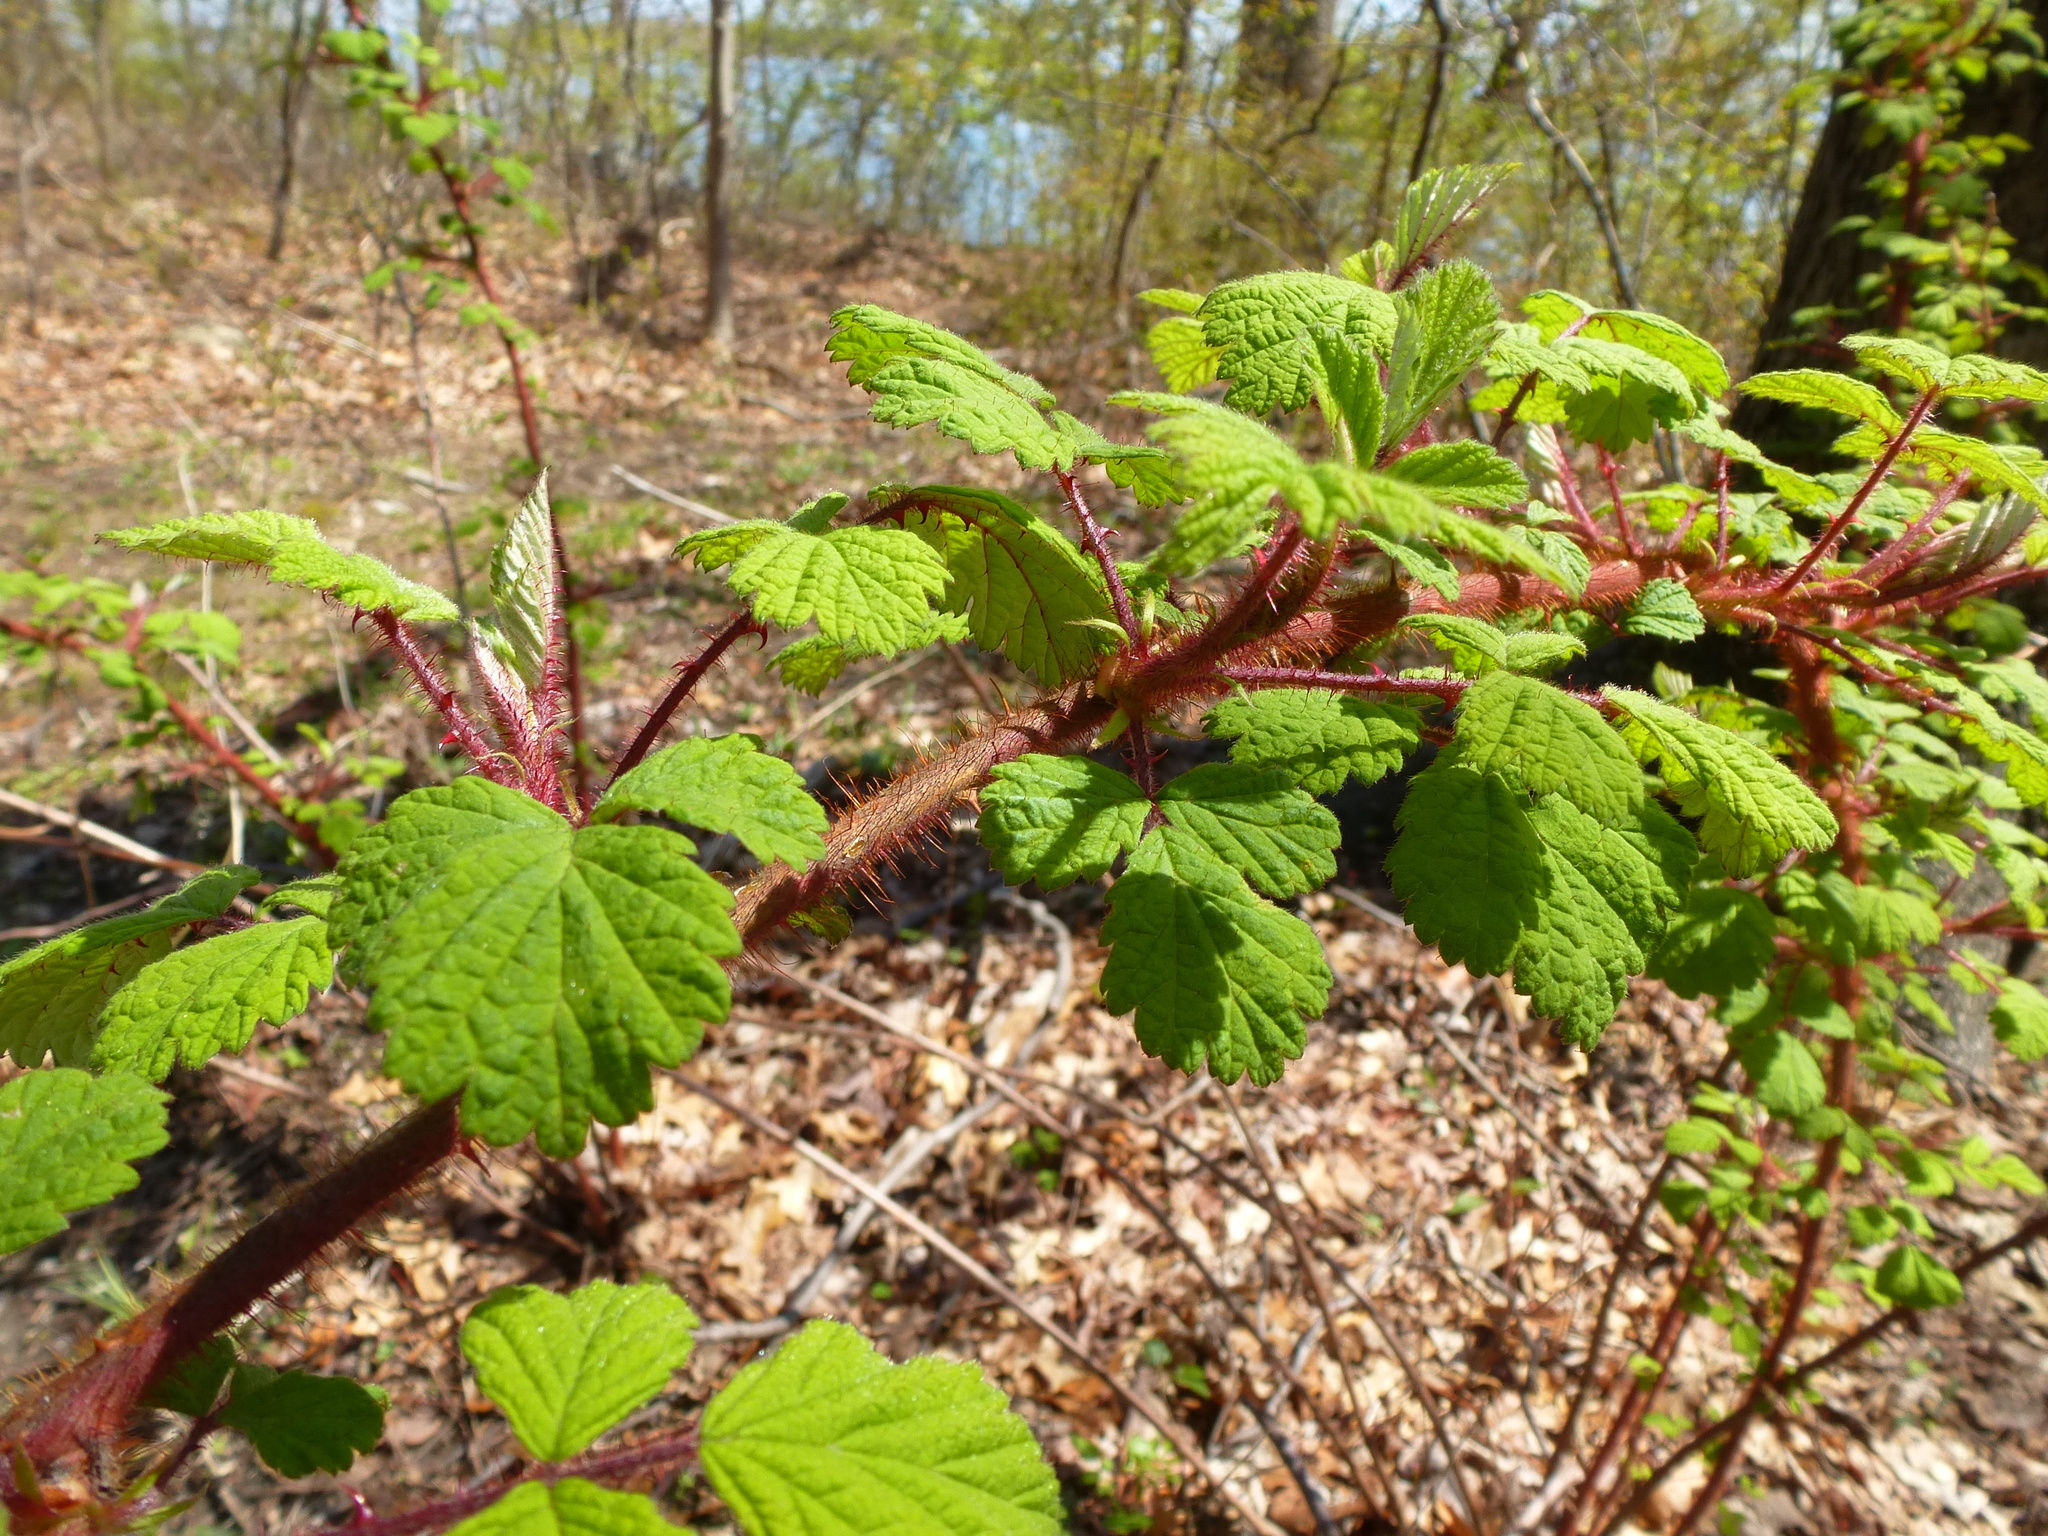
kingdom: Plantae
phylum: Tracheophyta
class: Magnoliopsida
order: Rosales
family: Rosaceae
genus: Rubus
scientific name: Rubus phoenicolasius
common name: Japanese wineberry
